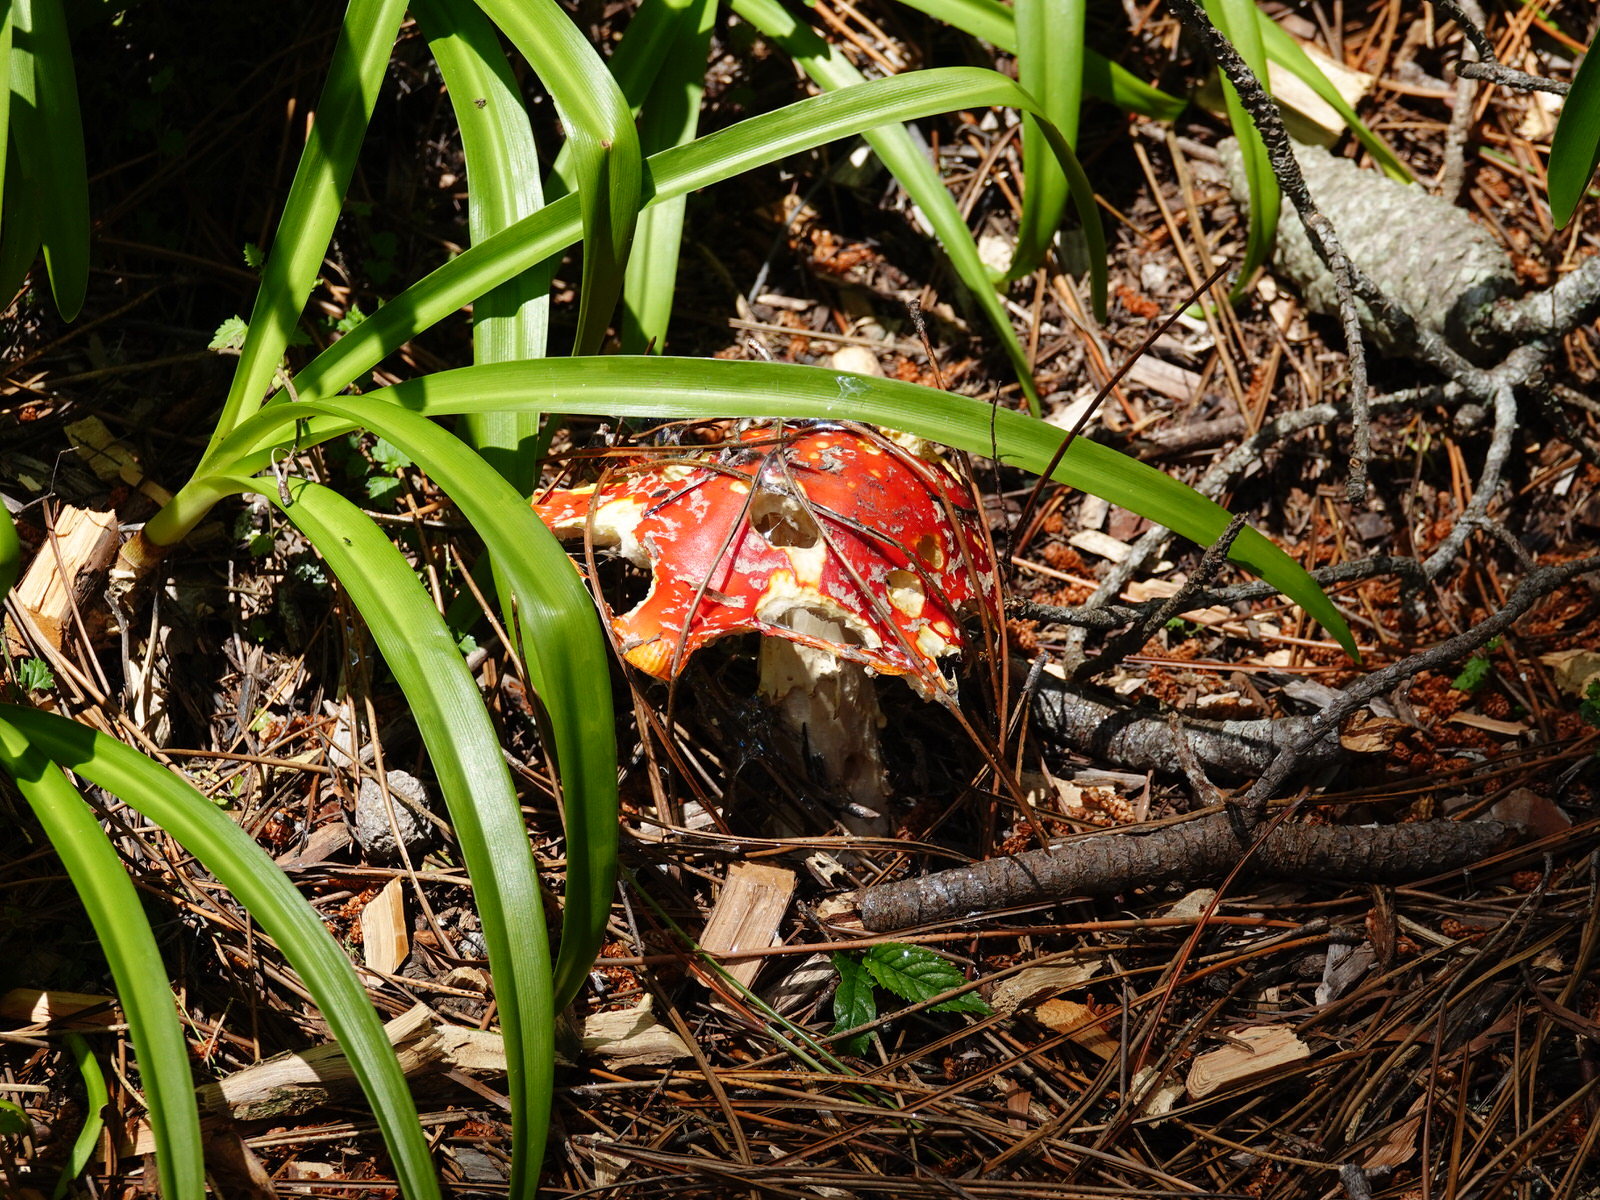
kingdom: Fungi
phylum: Basidiomycota
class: Agaricomycetes
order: Agaricales
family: Amanitaceae
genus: Amanita
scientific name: Amanita muscaria
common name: Fly agaric
